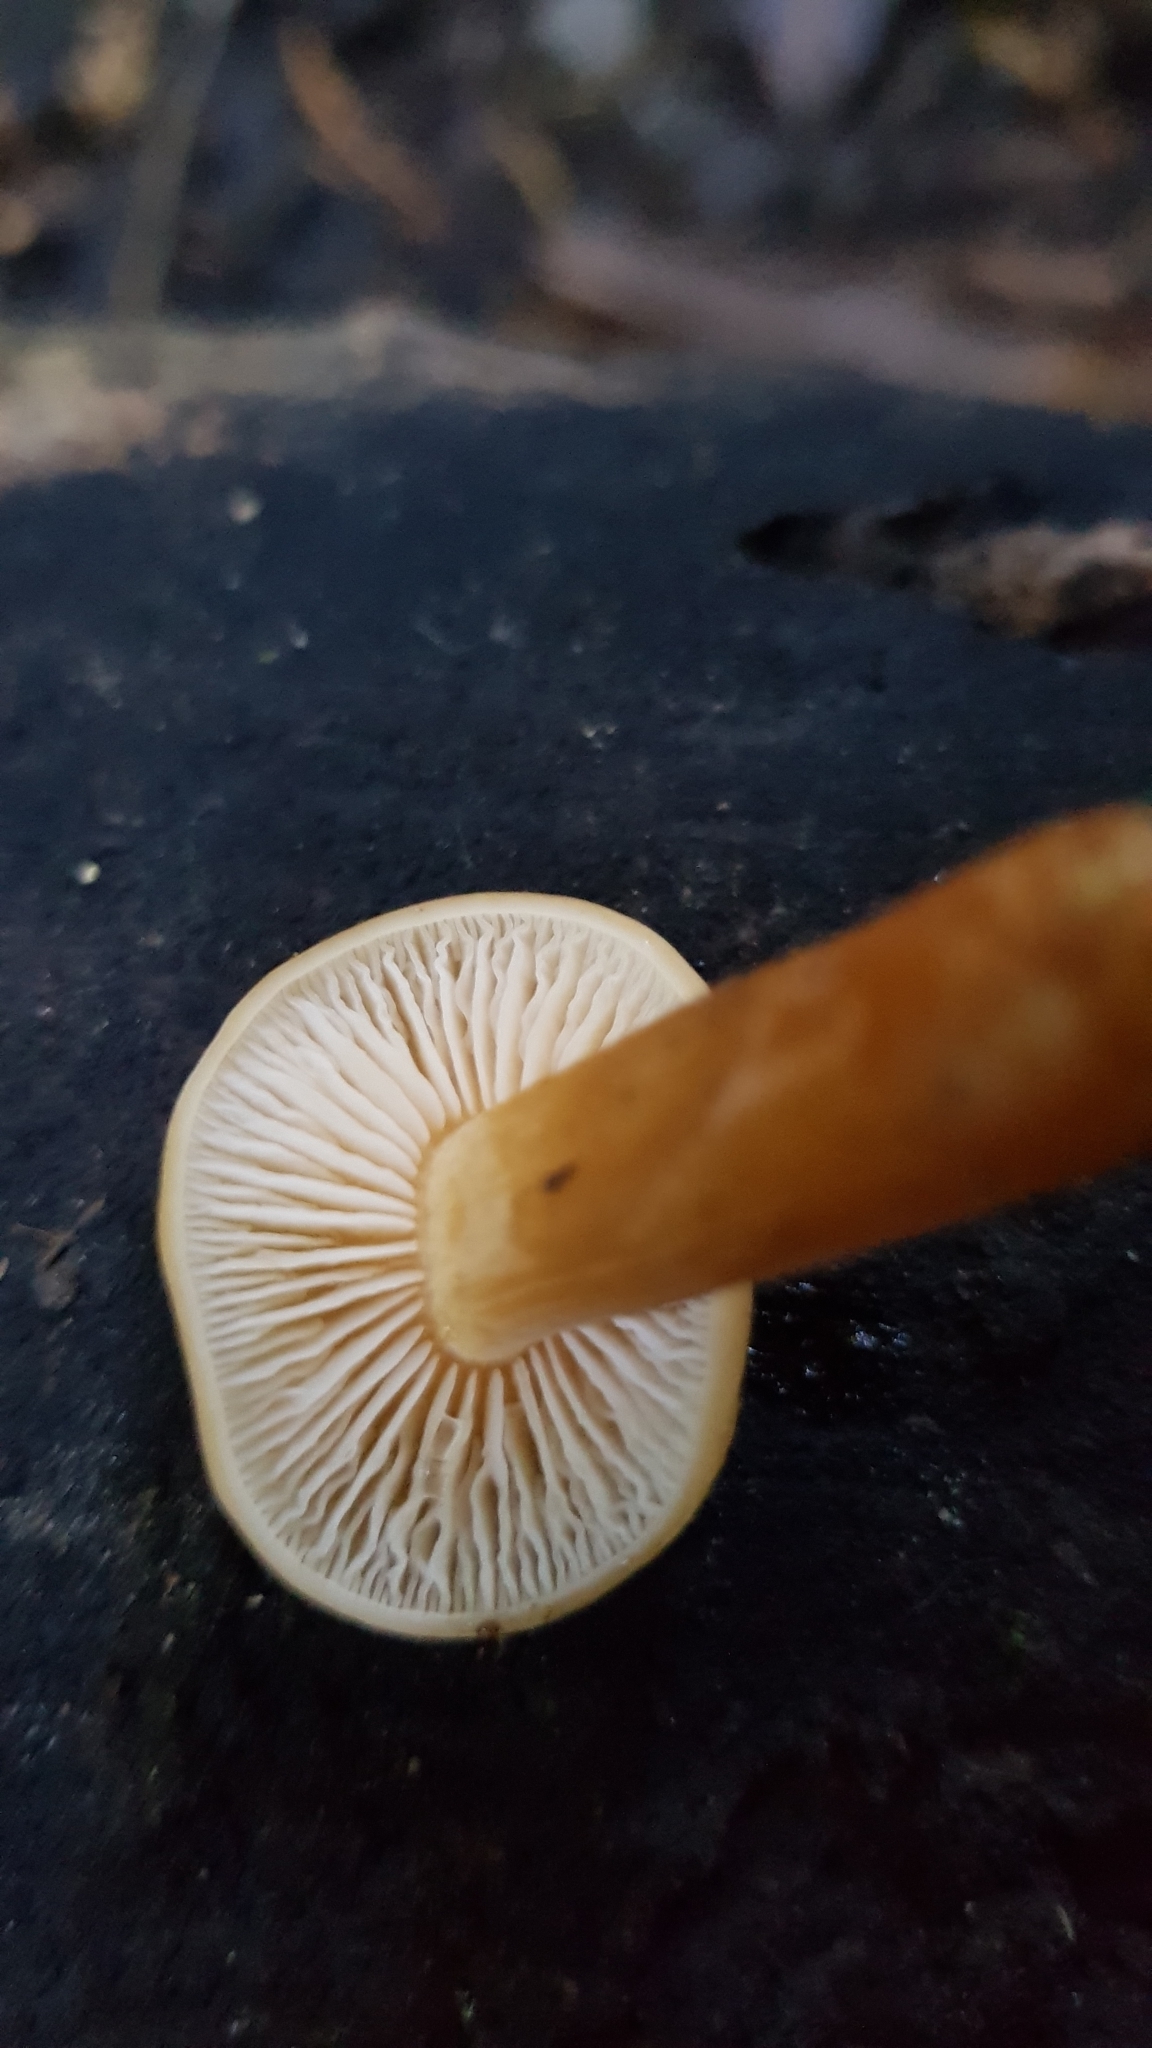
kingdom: Fungi
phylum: Basidiomycota
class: Agaricomycetes
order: Agaricales
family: Physalacriaceae
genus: Flammulina
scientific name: Flammulina velutipes
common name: Velvet shank
